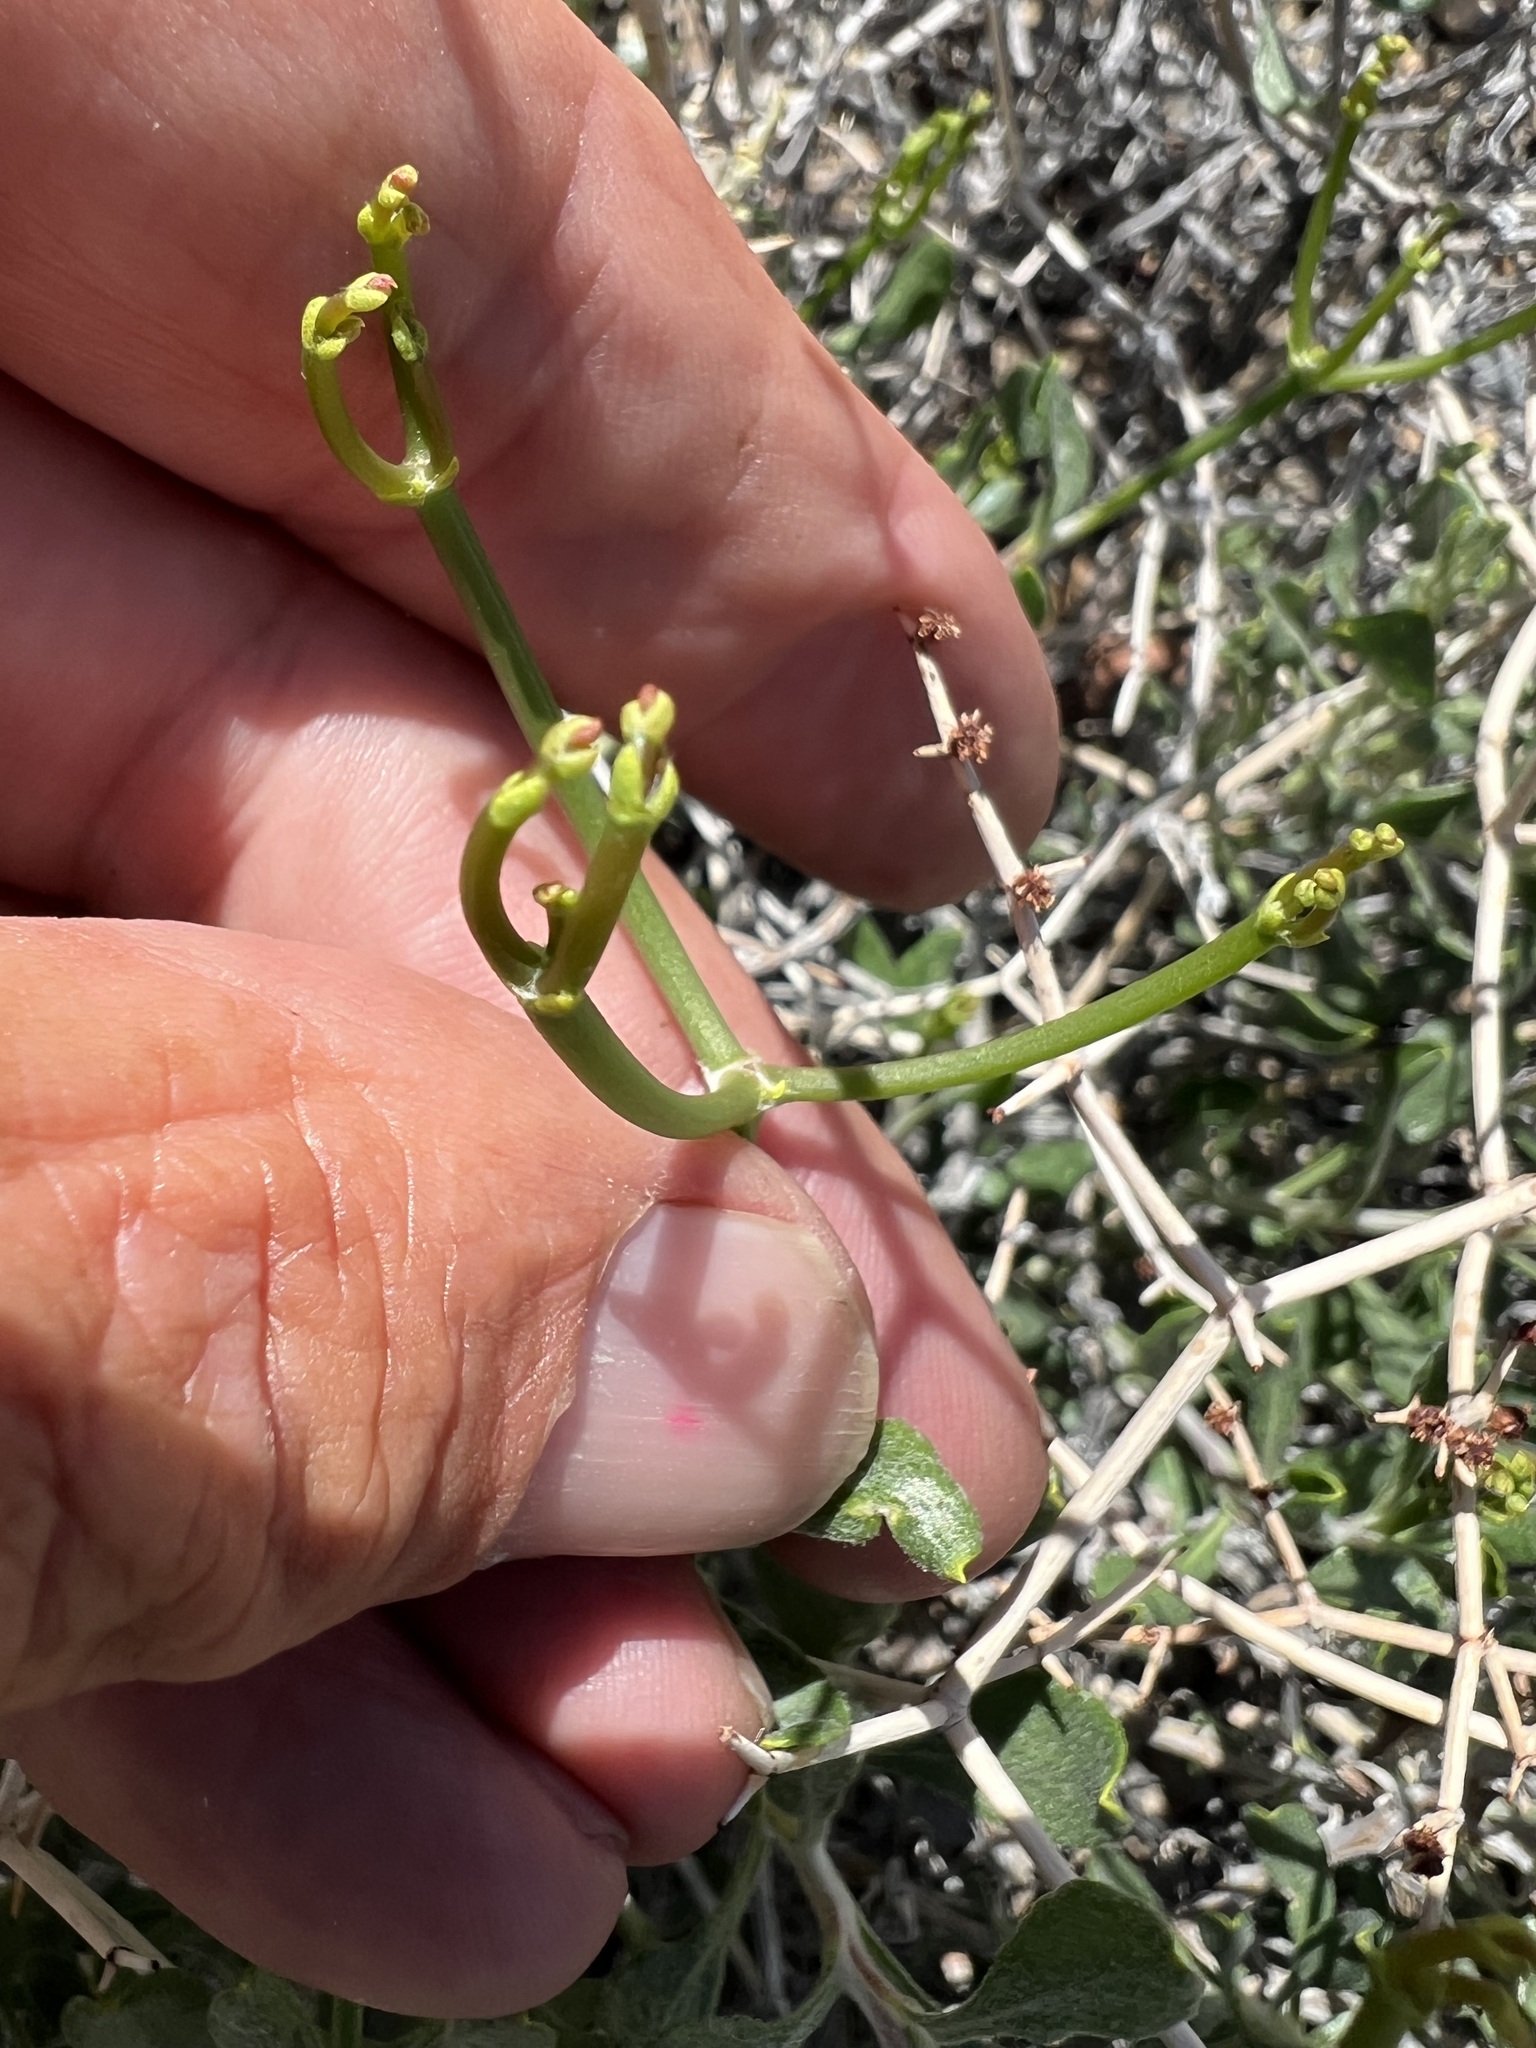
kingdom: Plantae
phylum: Tracheophyta
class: Magnoliopsida
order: Caryophyllales
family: Polygonaceae
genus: Eriogonum
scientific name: Eriogonum heermannii
